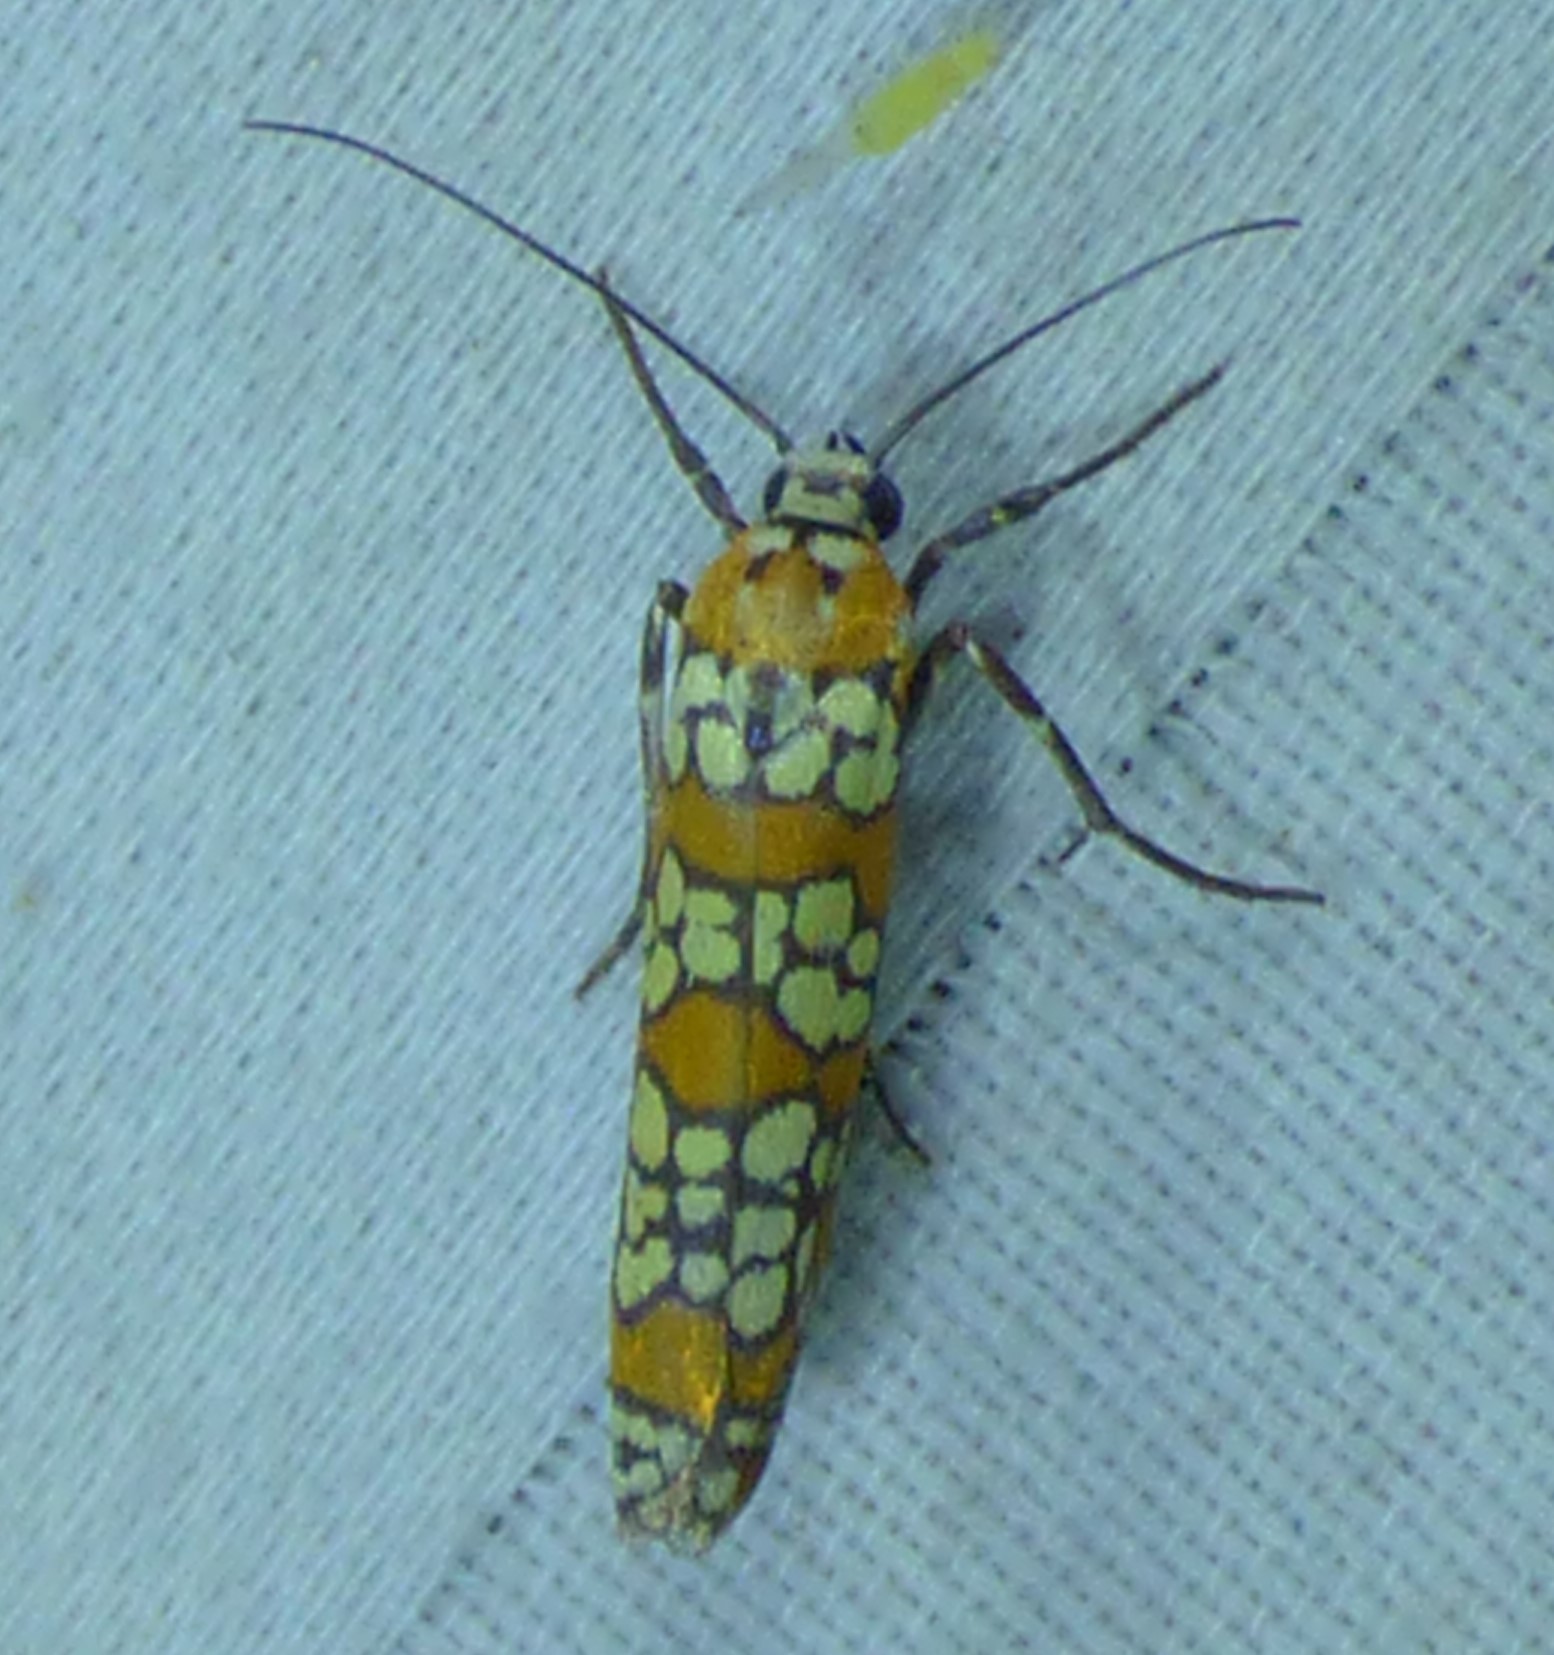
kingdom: Animalia
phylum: Arthropoda
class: Insecta
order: Lepidoptera
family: Attevidae
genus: Atteva
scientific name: Atteva punctella
